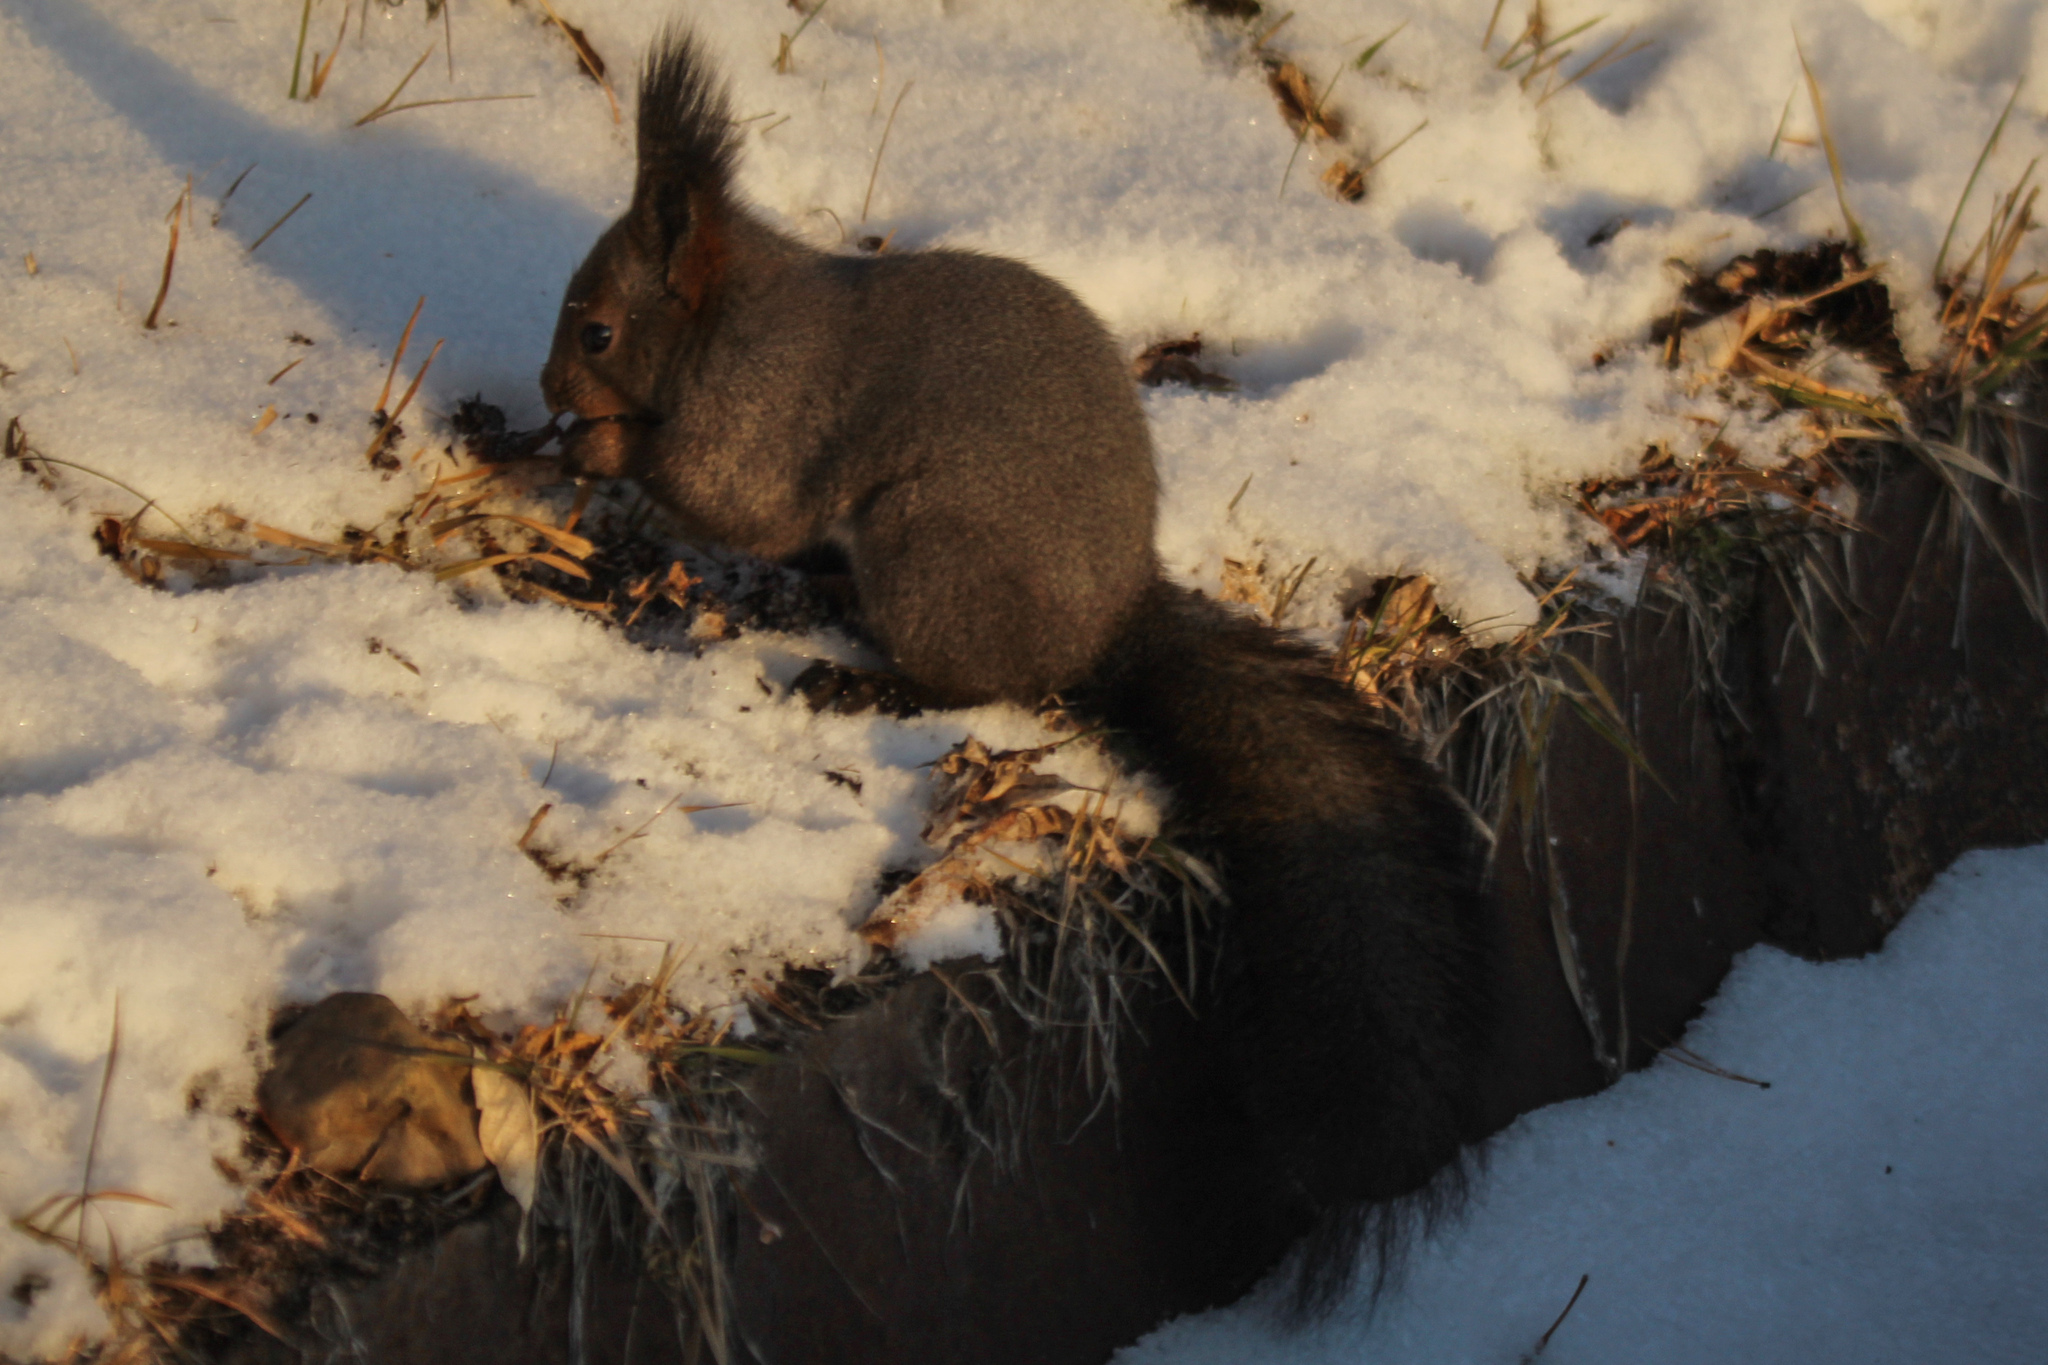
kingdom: Animalia
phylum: Chordata
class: Mammalia
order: Rodentia
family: Sciuridae
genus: Sciurus
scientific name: Sciurus vulgaris
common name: Eurasian red squirrel
